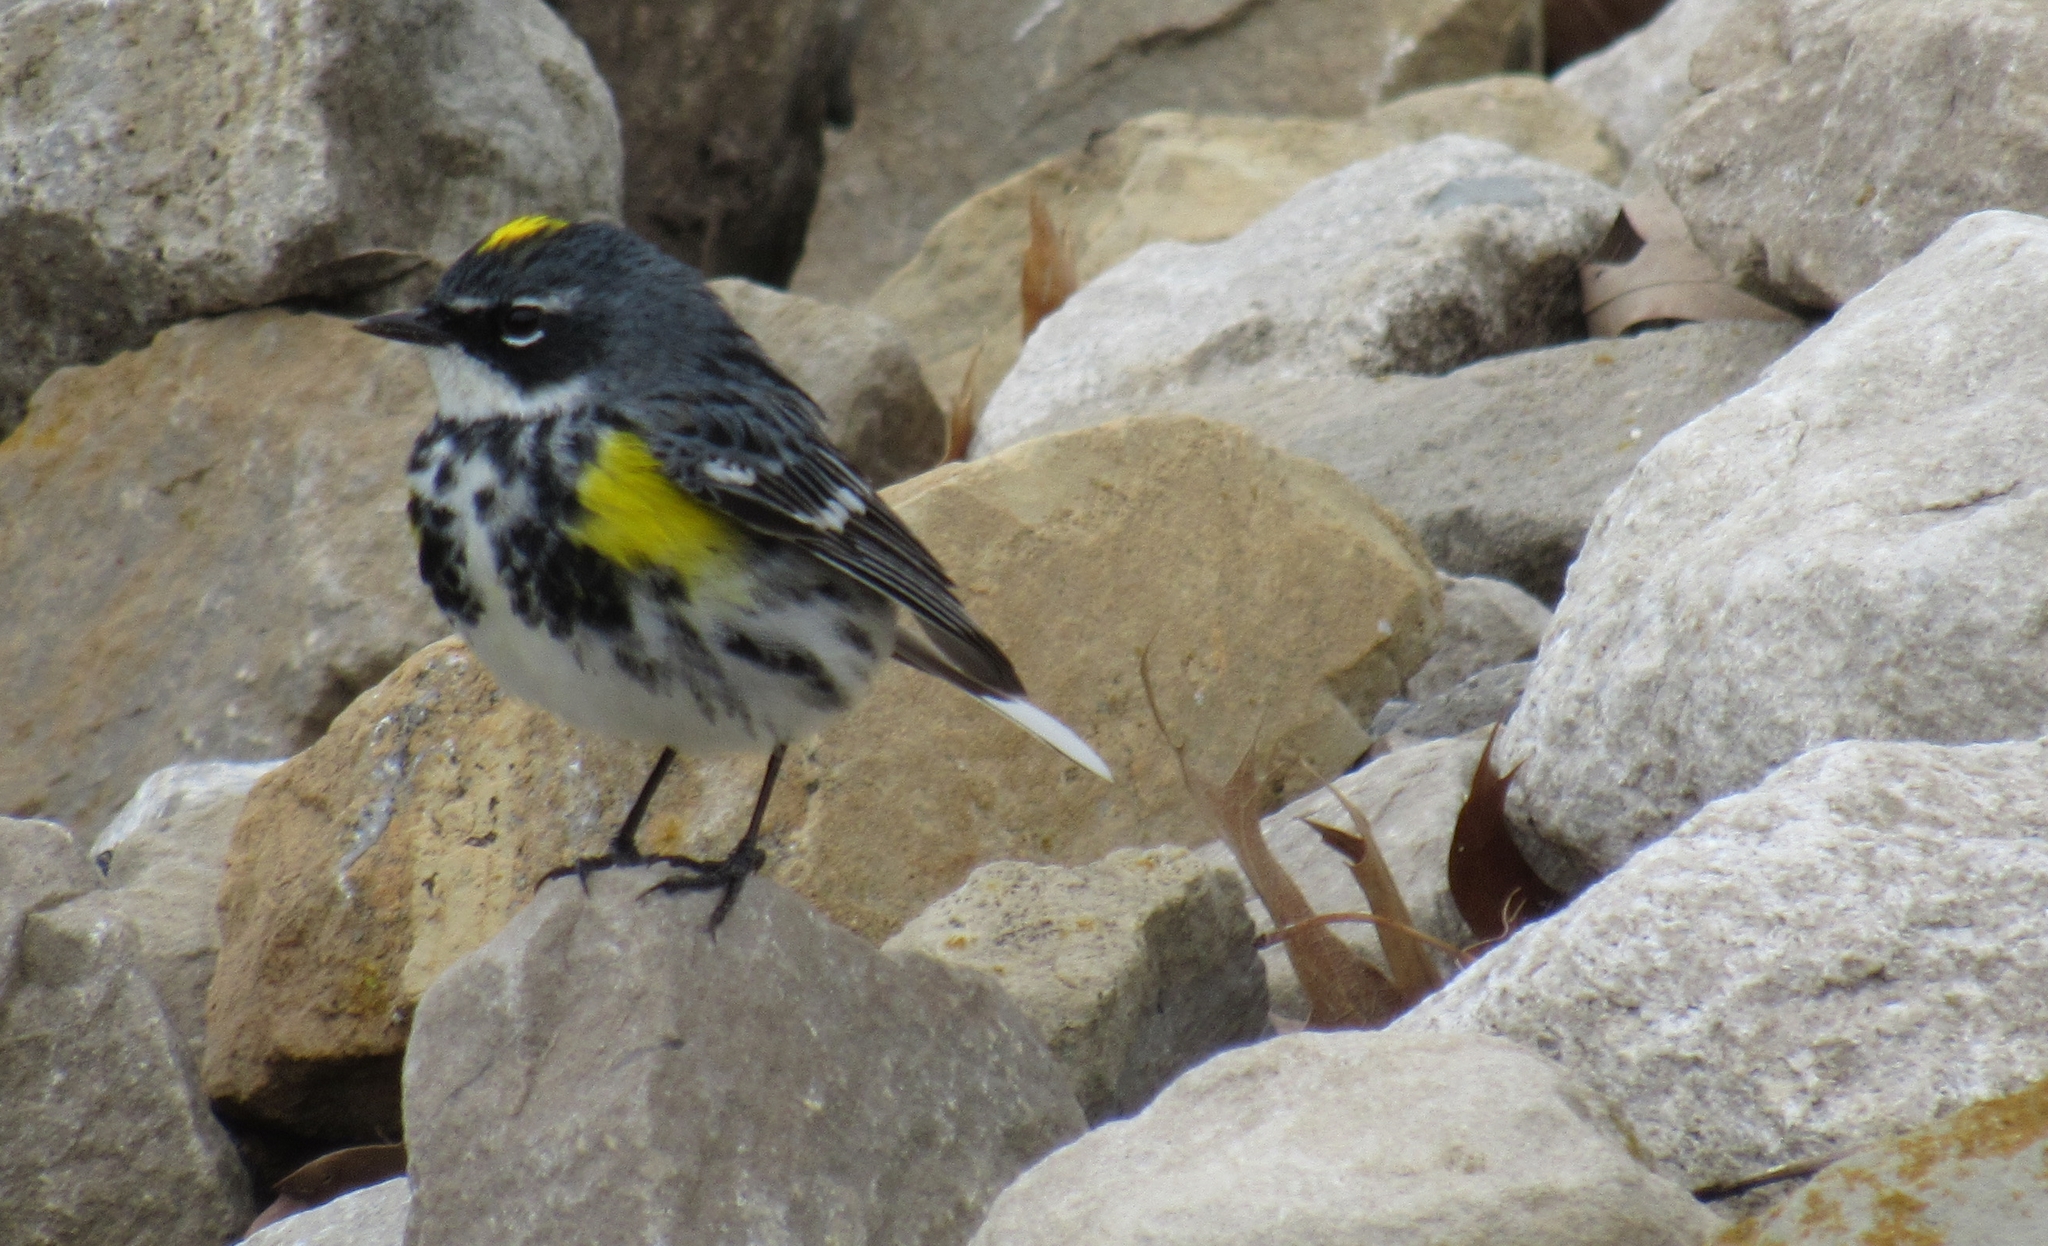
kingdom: Animalia
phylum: Chordata
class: Aves
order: Passeriformes
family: Parulidae
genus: Setophaga
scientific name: Setophaga coronata
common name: Myrtle warbler
